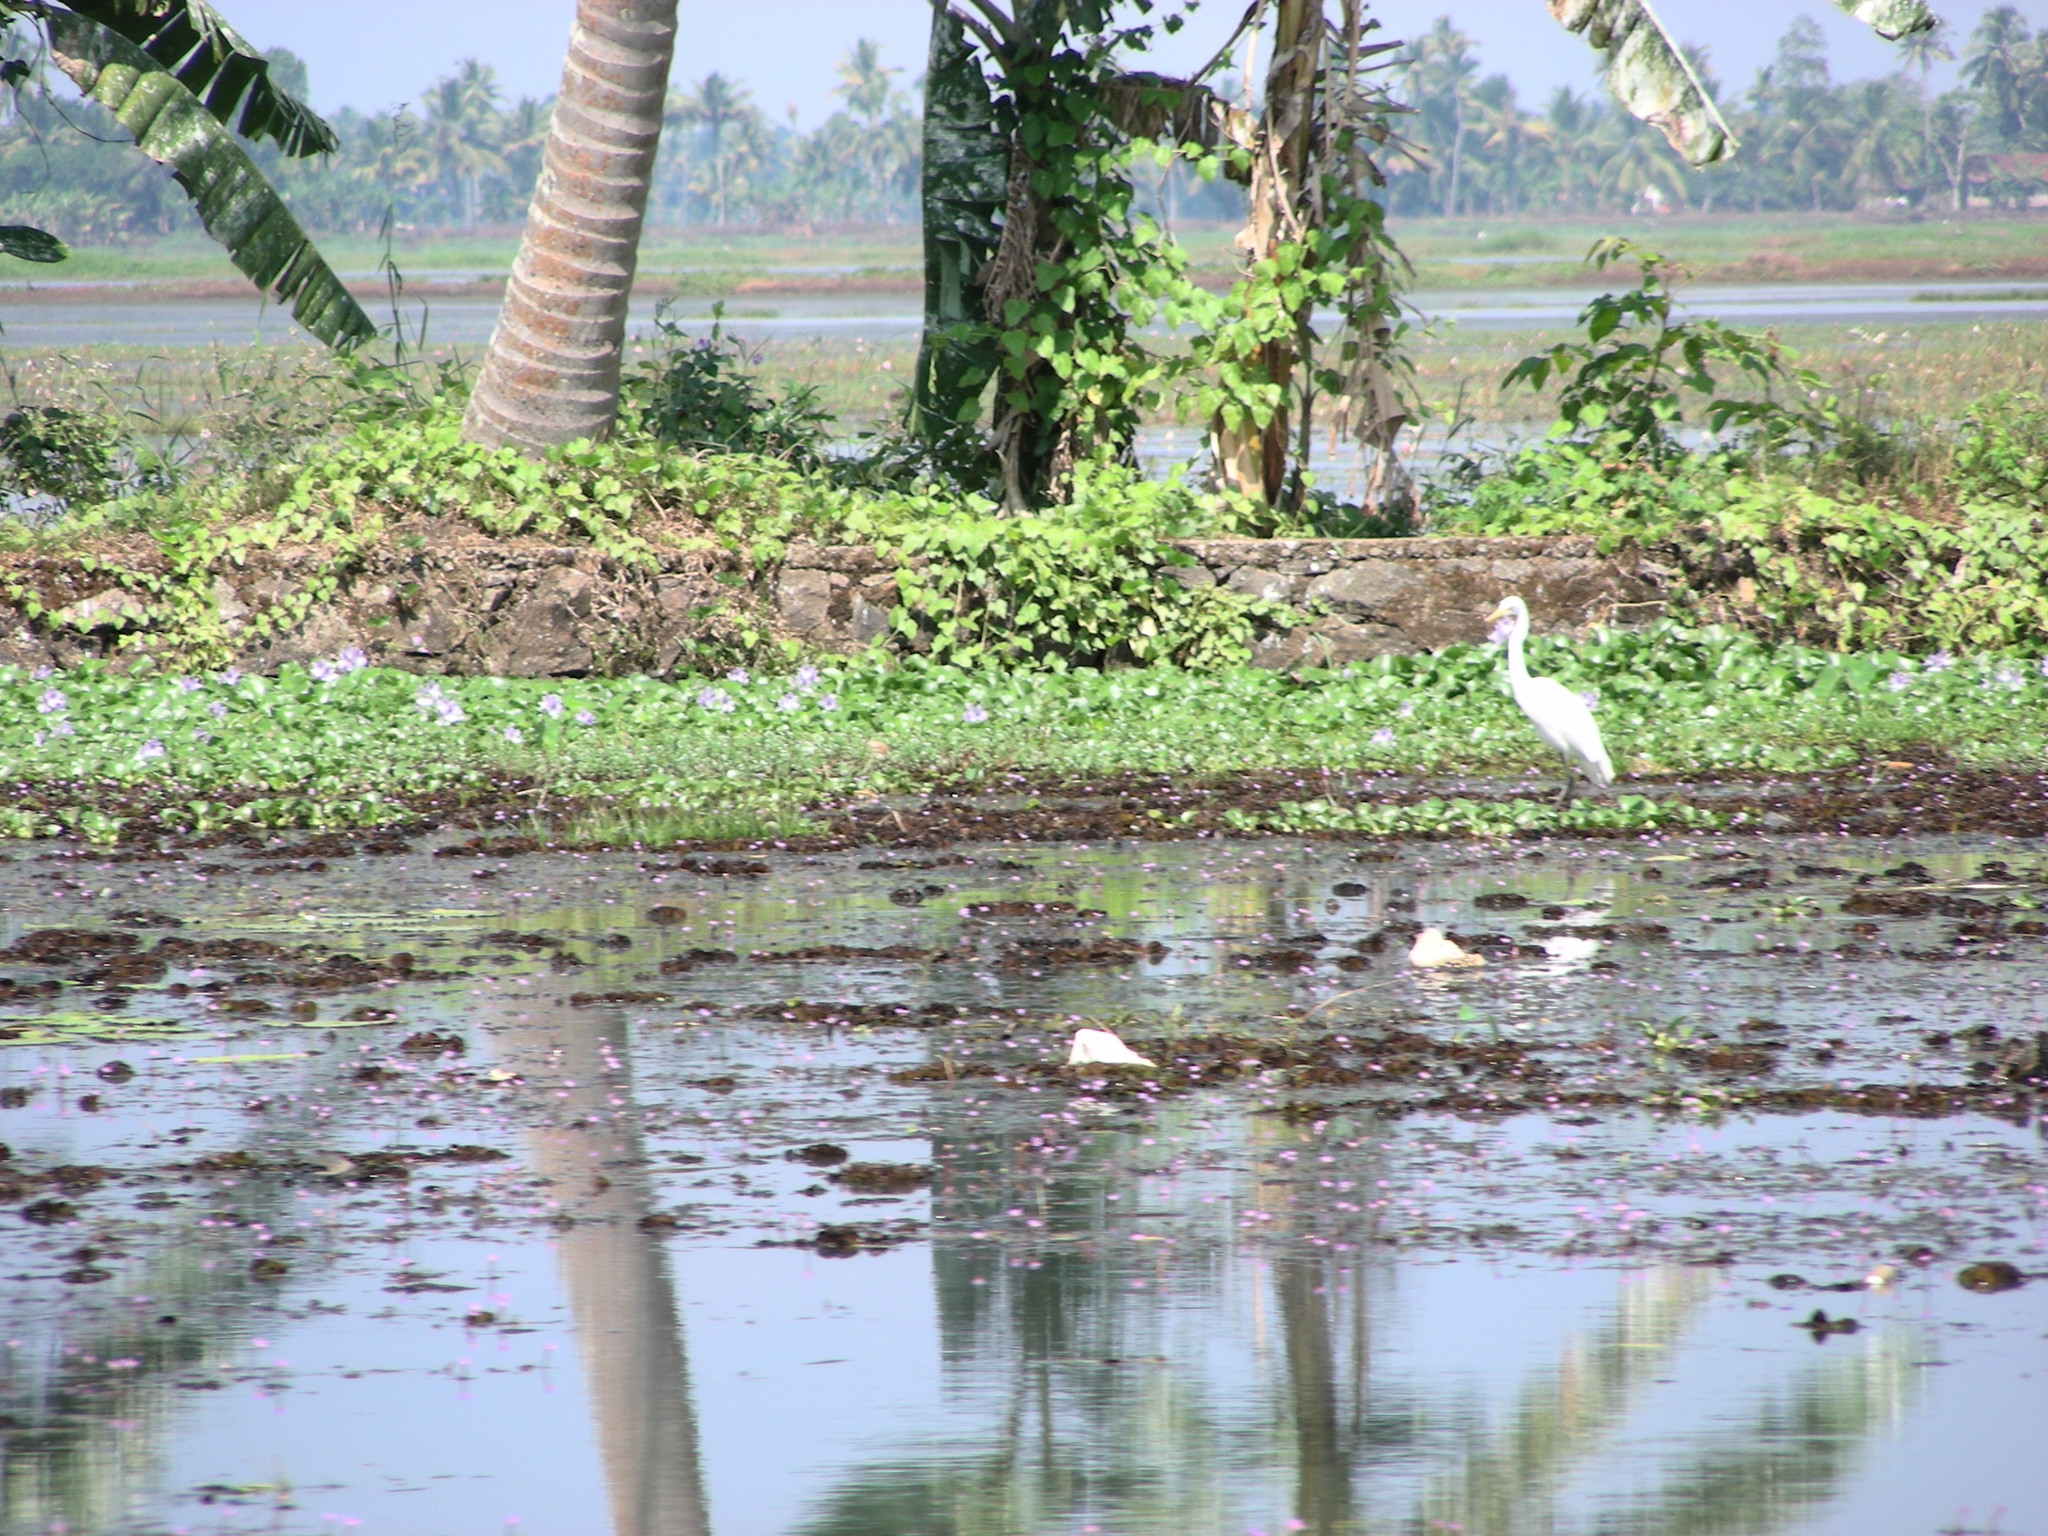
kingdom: Animalia
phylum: Chordata
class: Aves
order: Pelecaniformes
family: Ardeidae
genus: Egretta
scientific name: Egretta intermedia
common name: Intermediate egret
